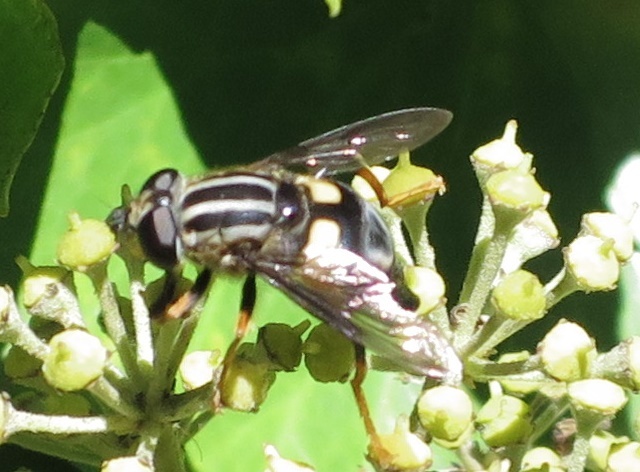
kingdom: Animalia
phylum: Arthropoda
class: Insecta
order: Diptera
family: Syrphidae
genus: Helophilus
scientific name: Helophilus seelandicus
